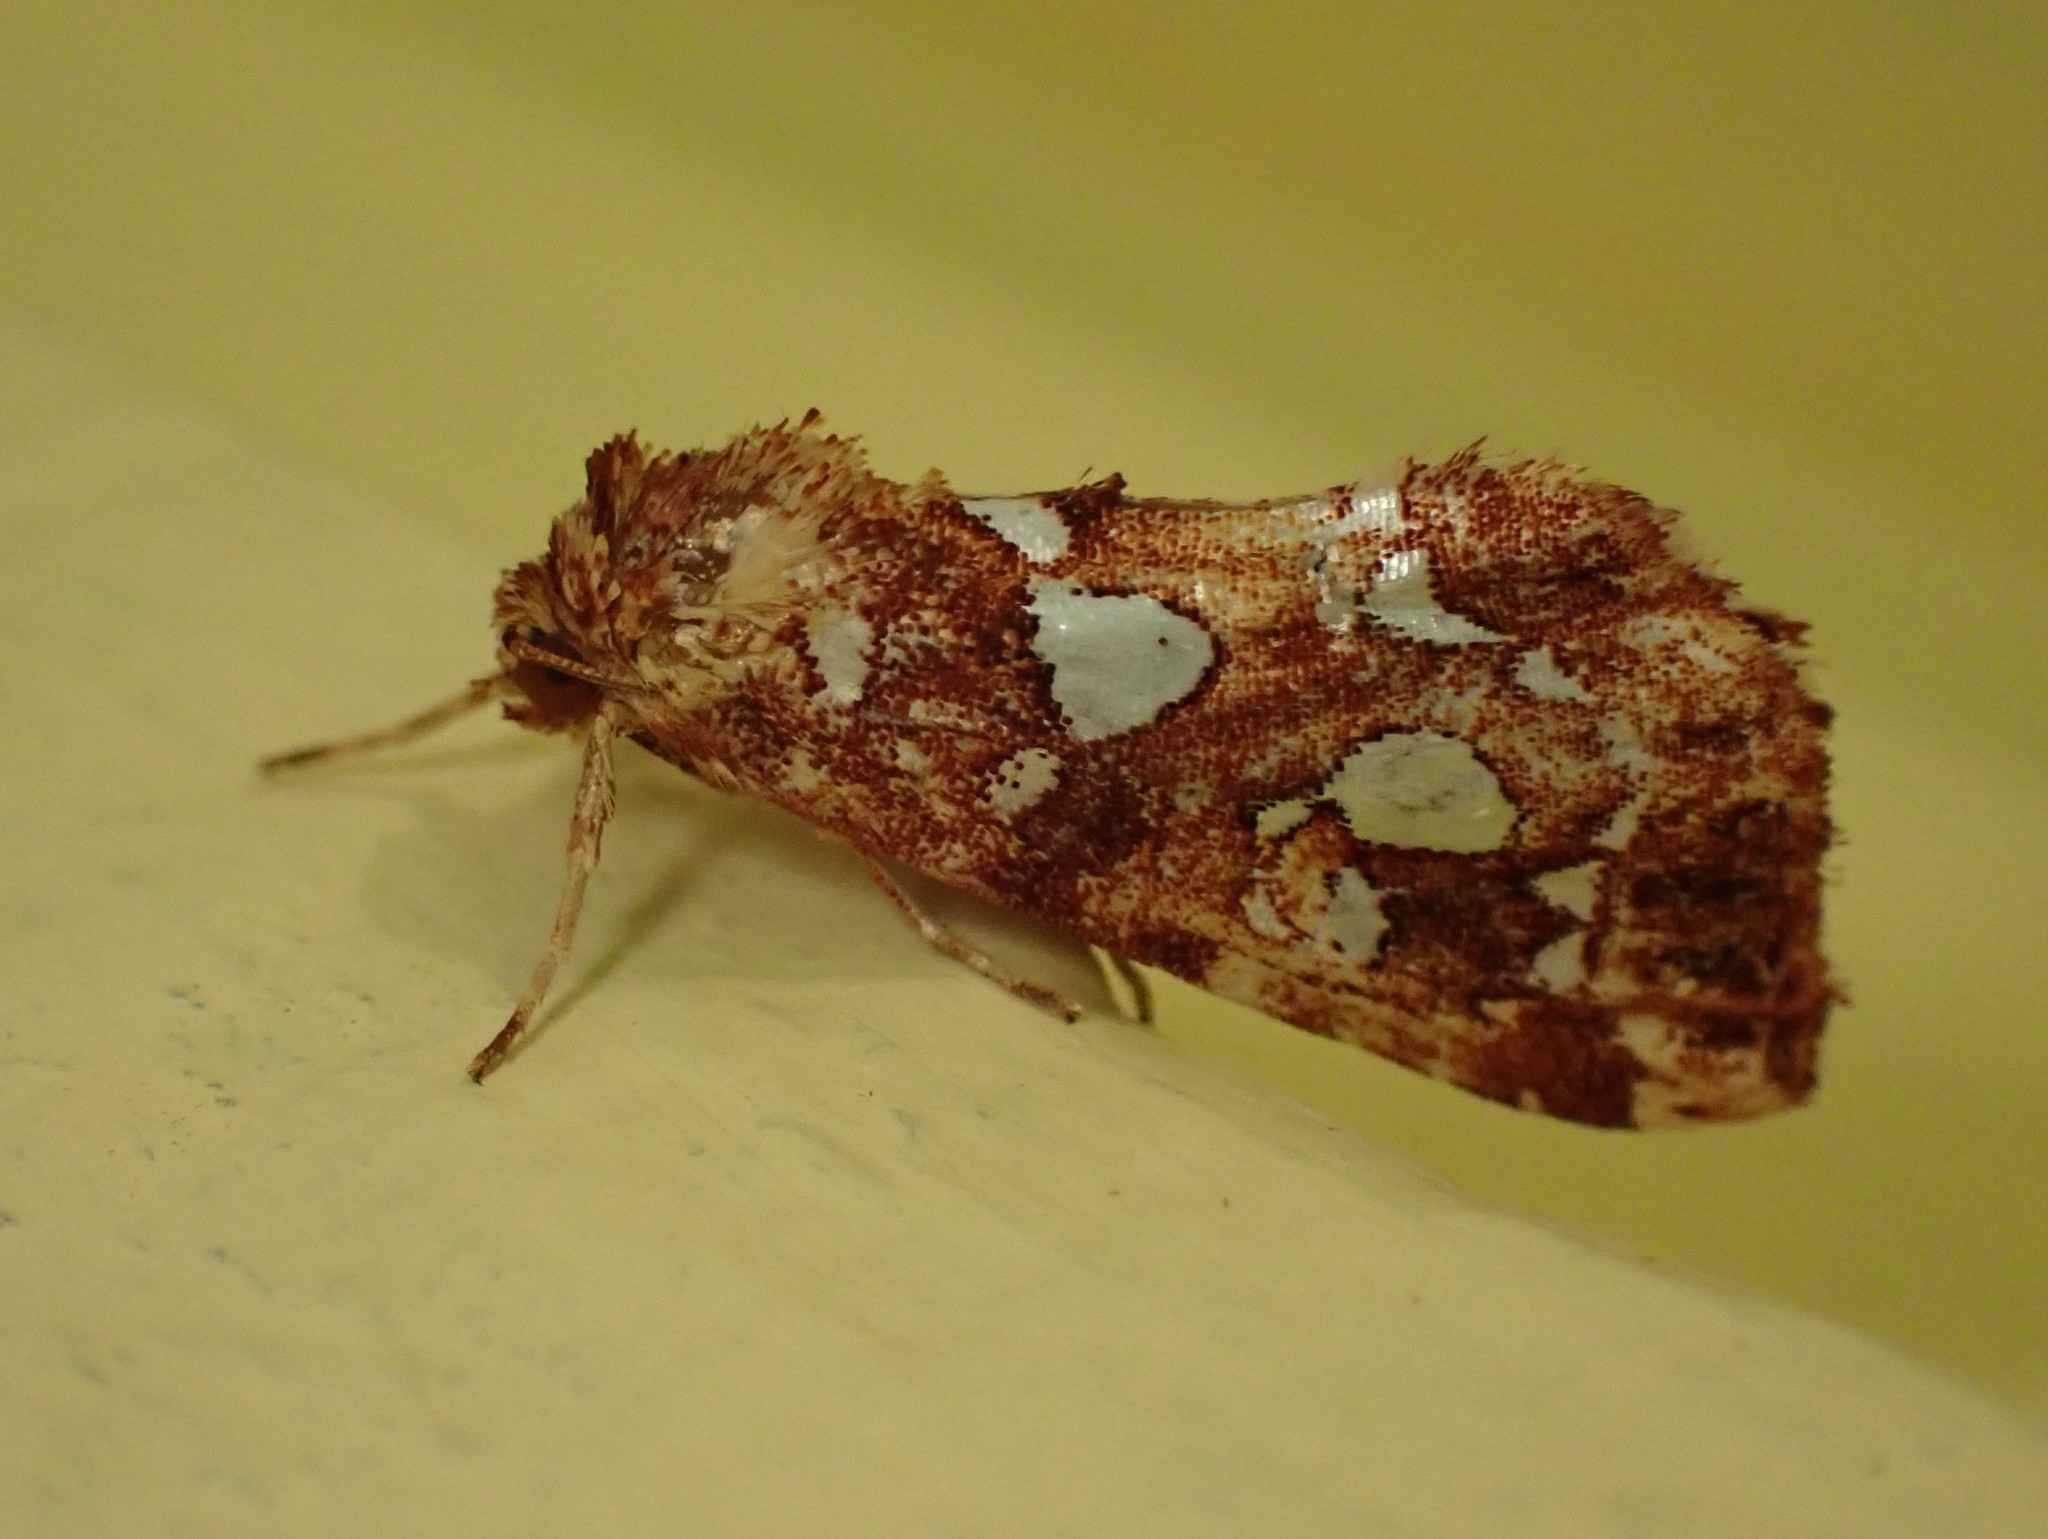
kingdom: Animalia
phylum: Arthropoda
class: Insecta
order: Lepidoptera
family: Noctuidae
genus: Callopistria
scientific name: Callopistria cordata
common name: Silver-spotted fern moth
